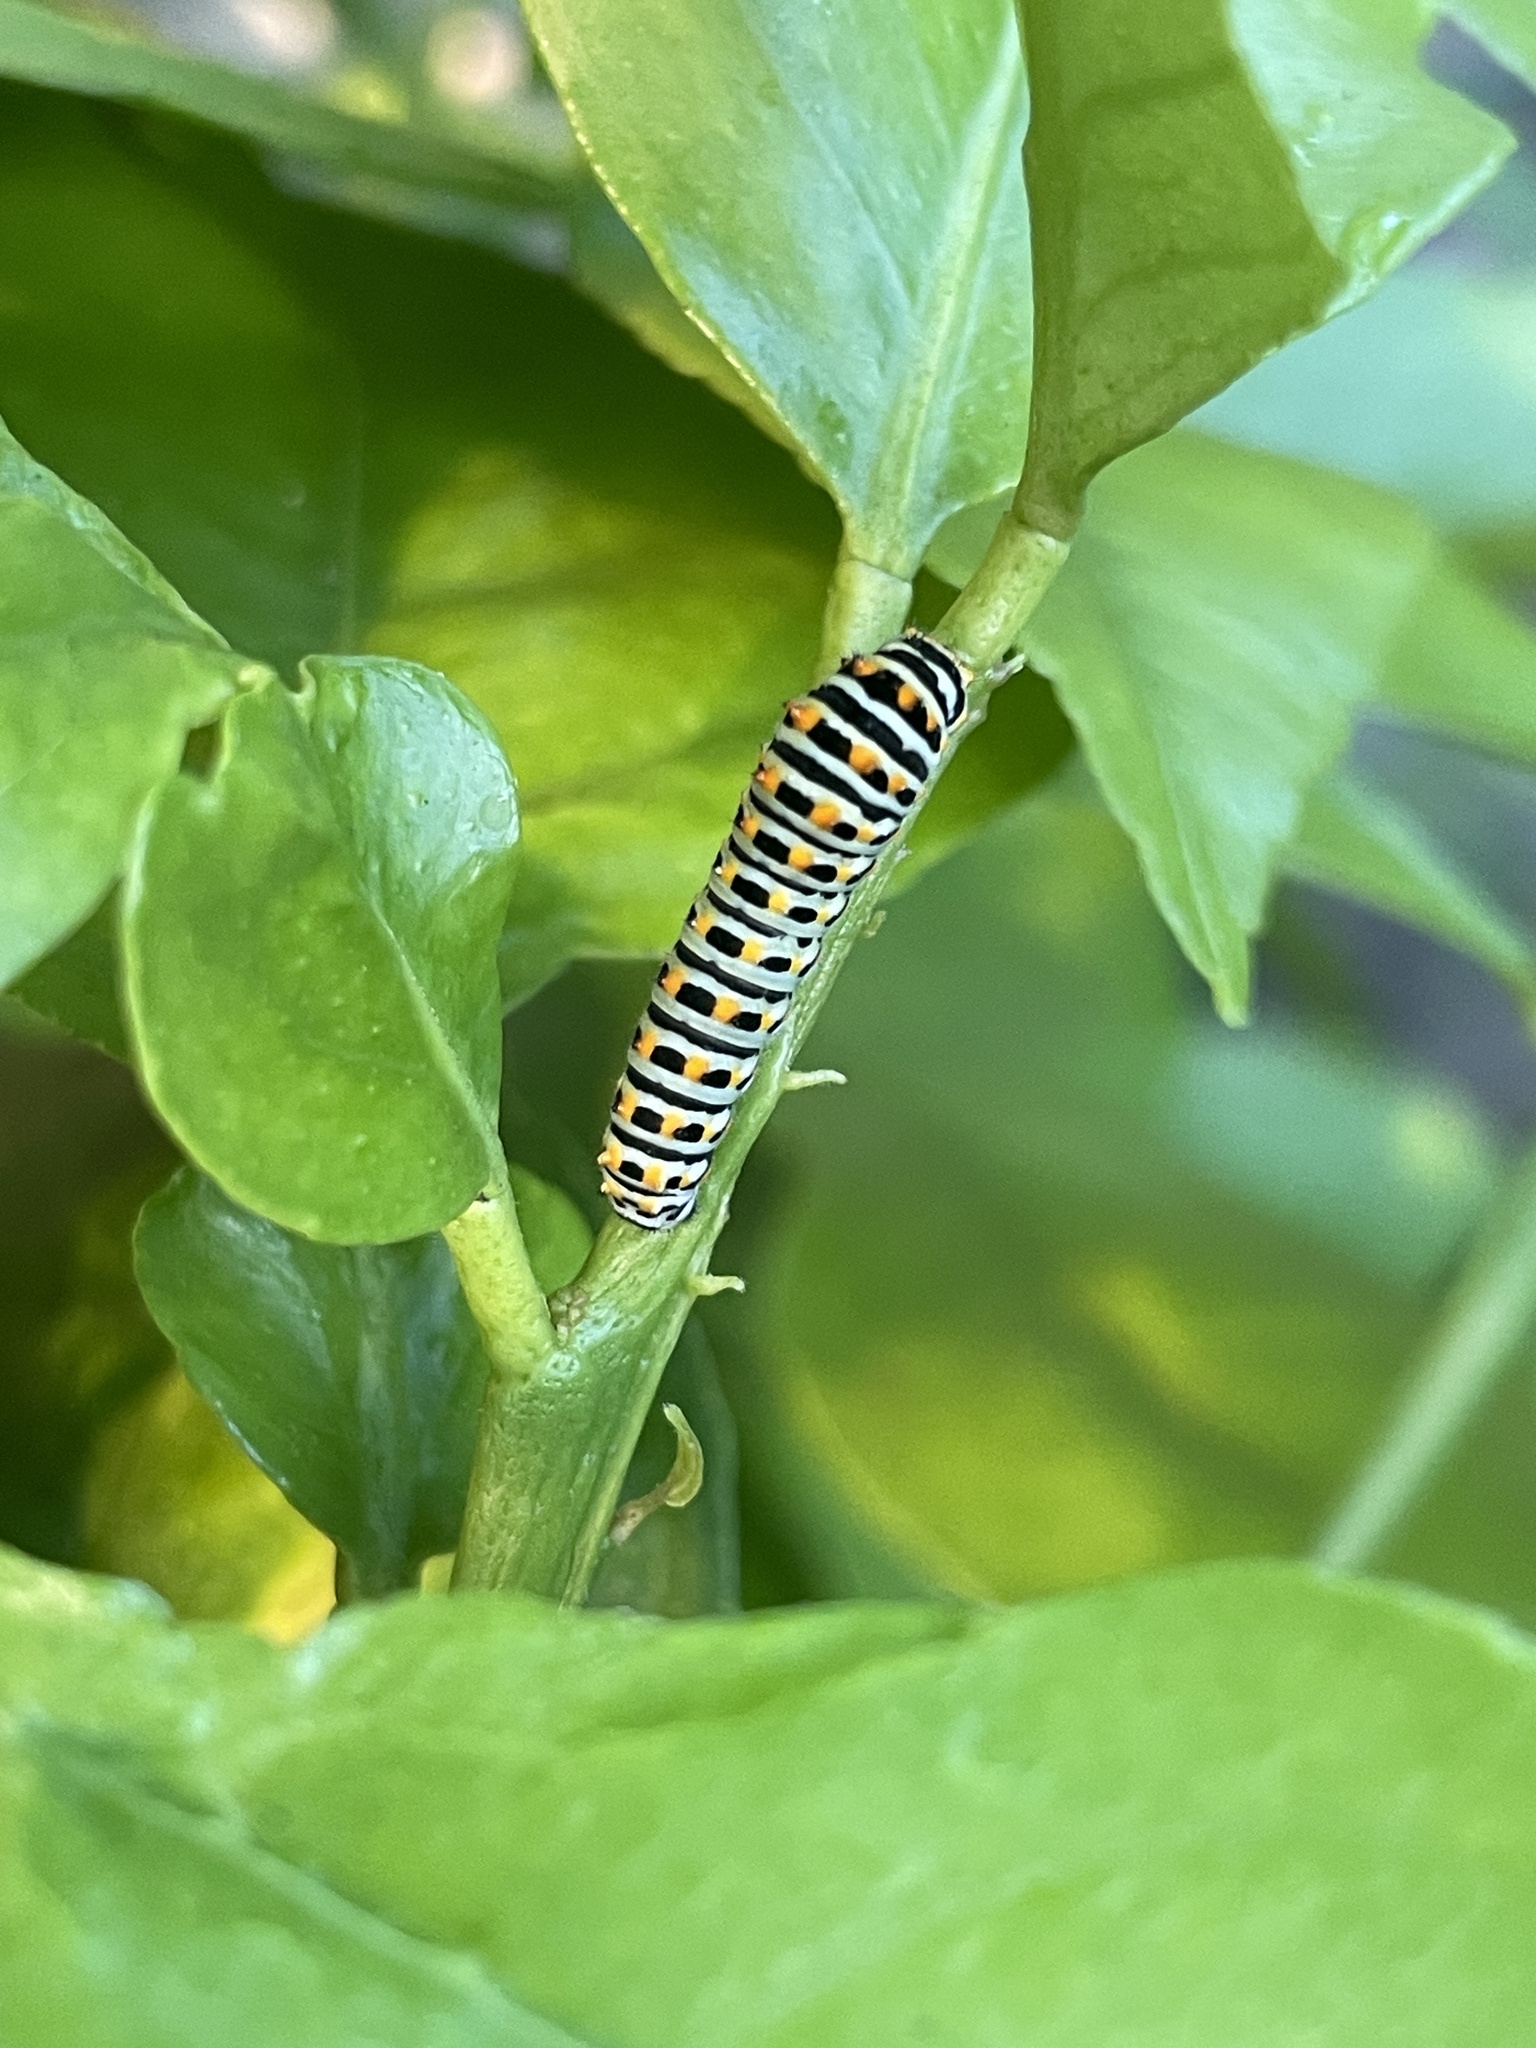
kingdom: Animalia
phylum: Arthropoda
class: Insecta
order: Lepidoptera
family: Papilionidae
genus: Papilio
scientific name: Papilio machaon
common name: Swallowtail
